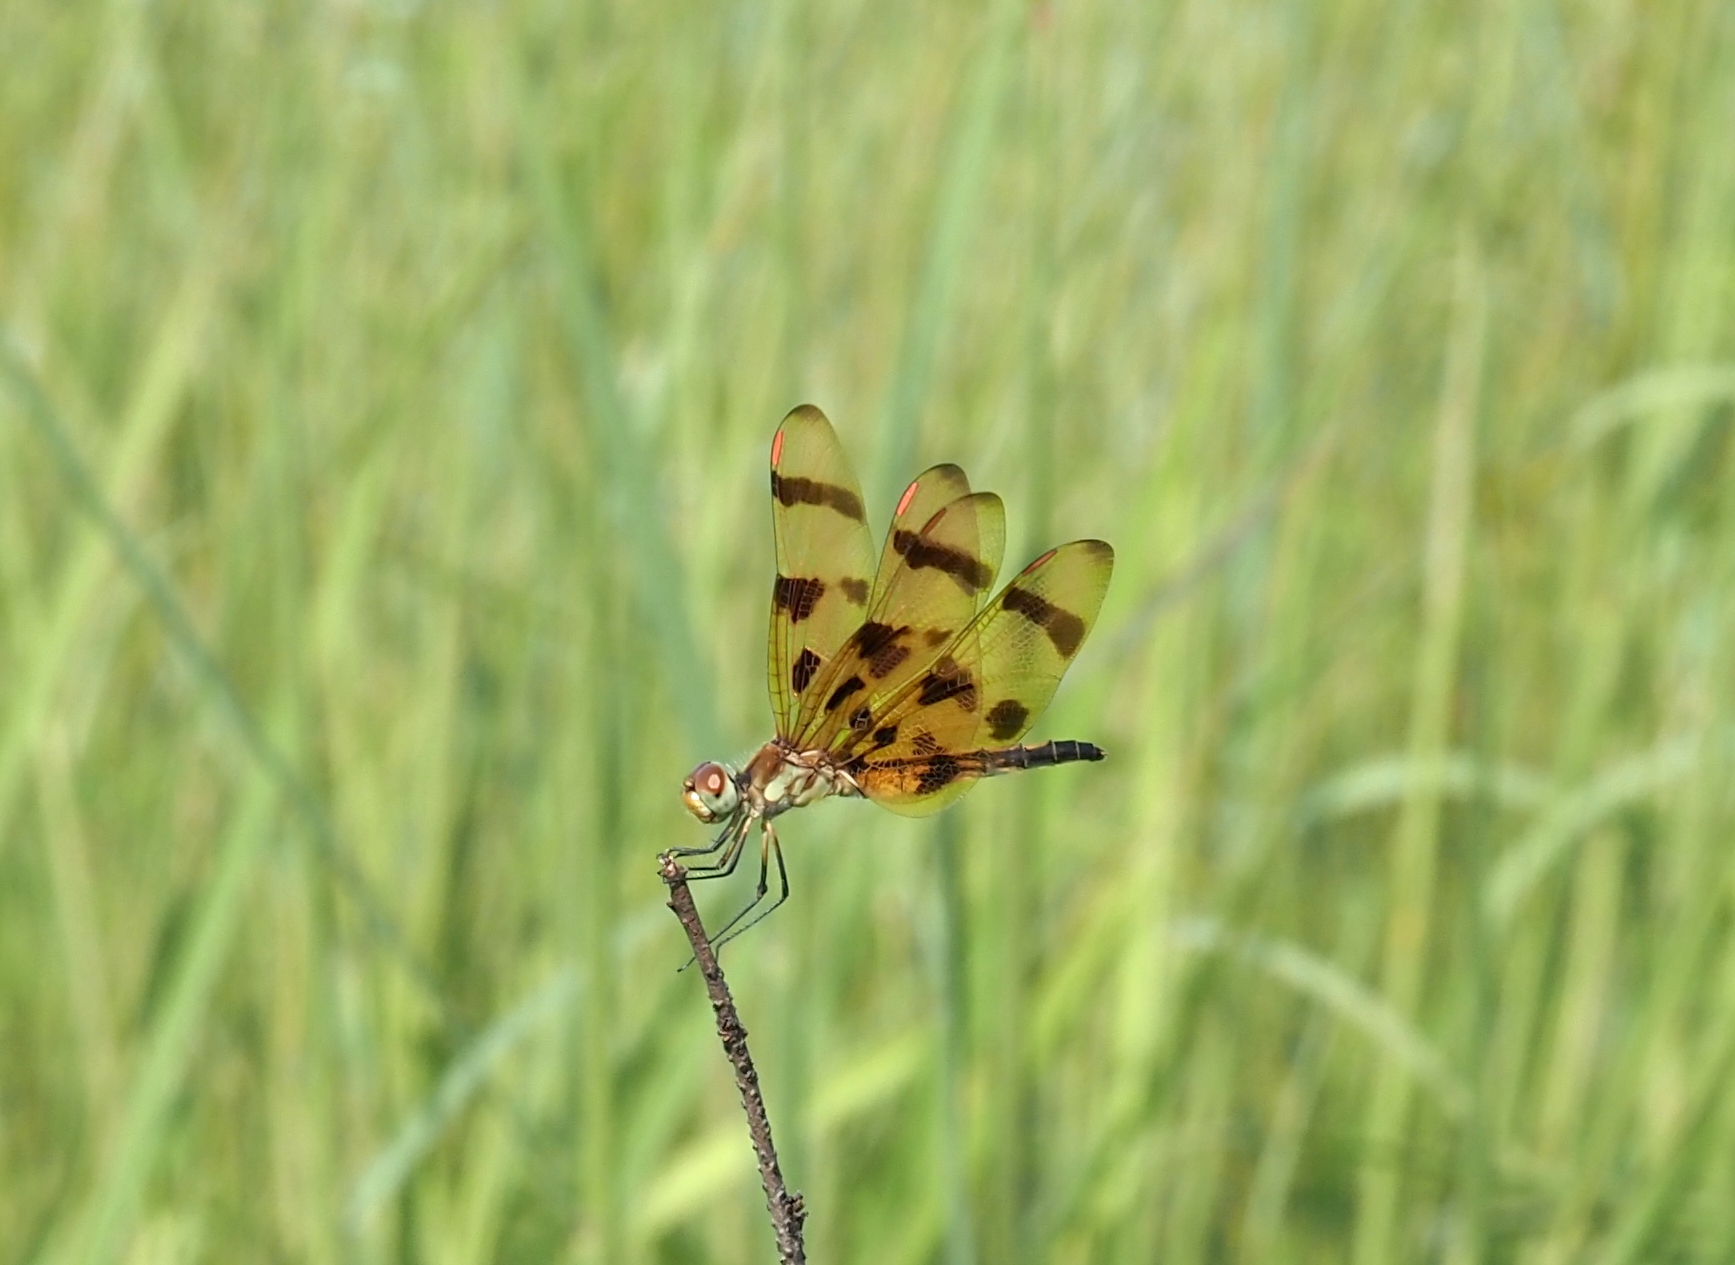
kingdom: Animalia
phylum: Arthropoda
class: Insecta
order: Odonata
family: Libellulidae
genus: Celithemis
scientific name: Celithemis eponina
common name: Halloween pennant
